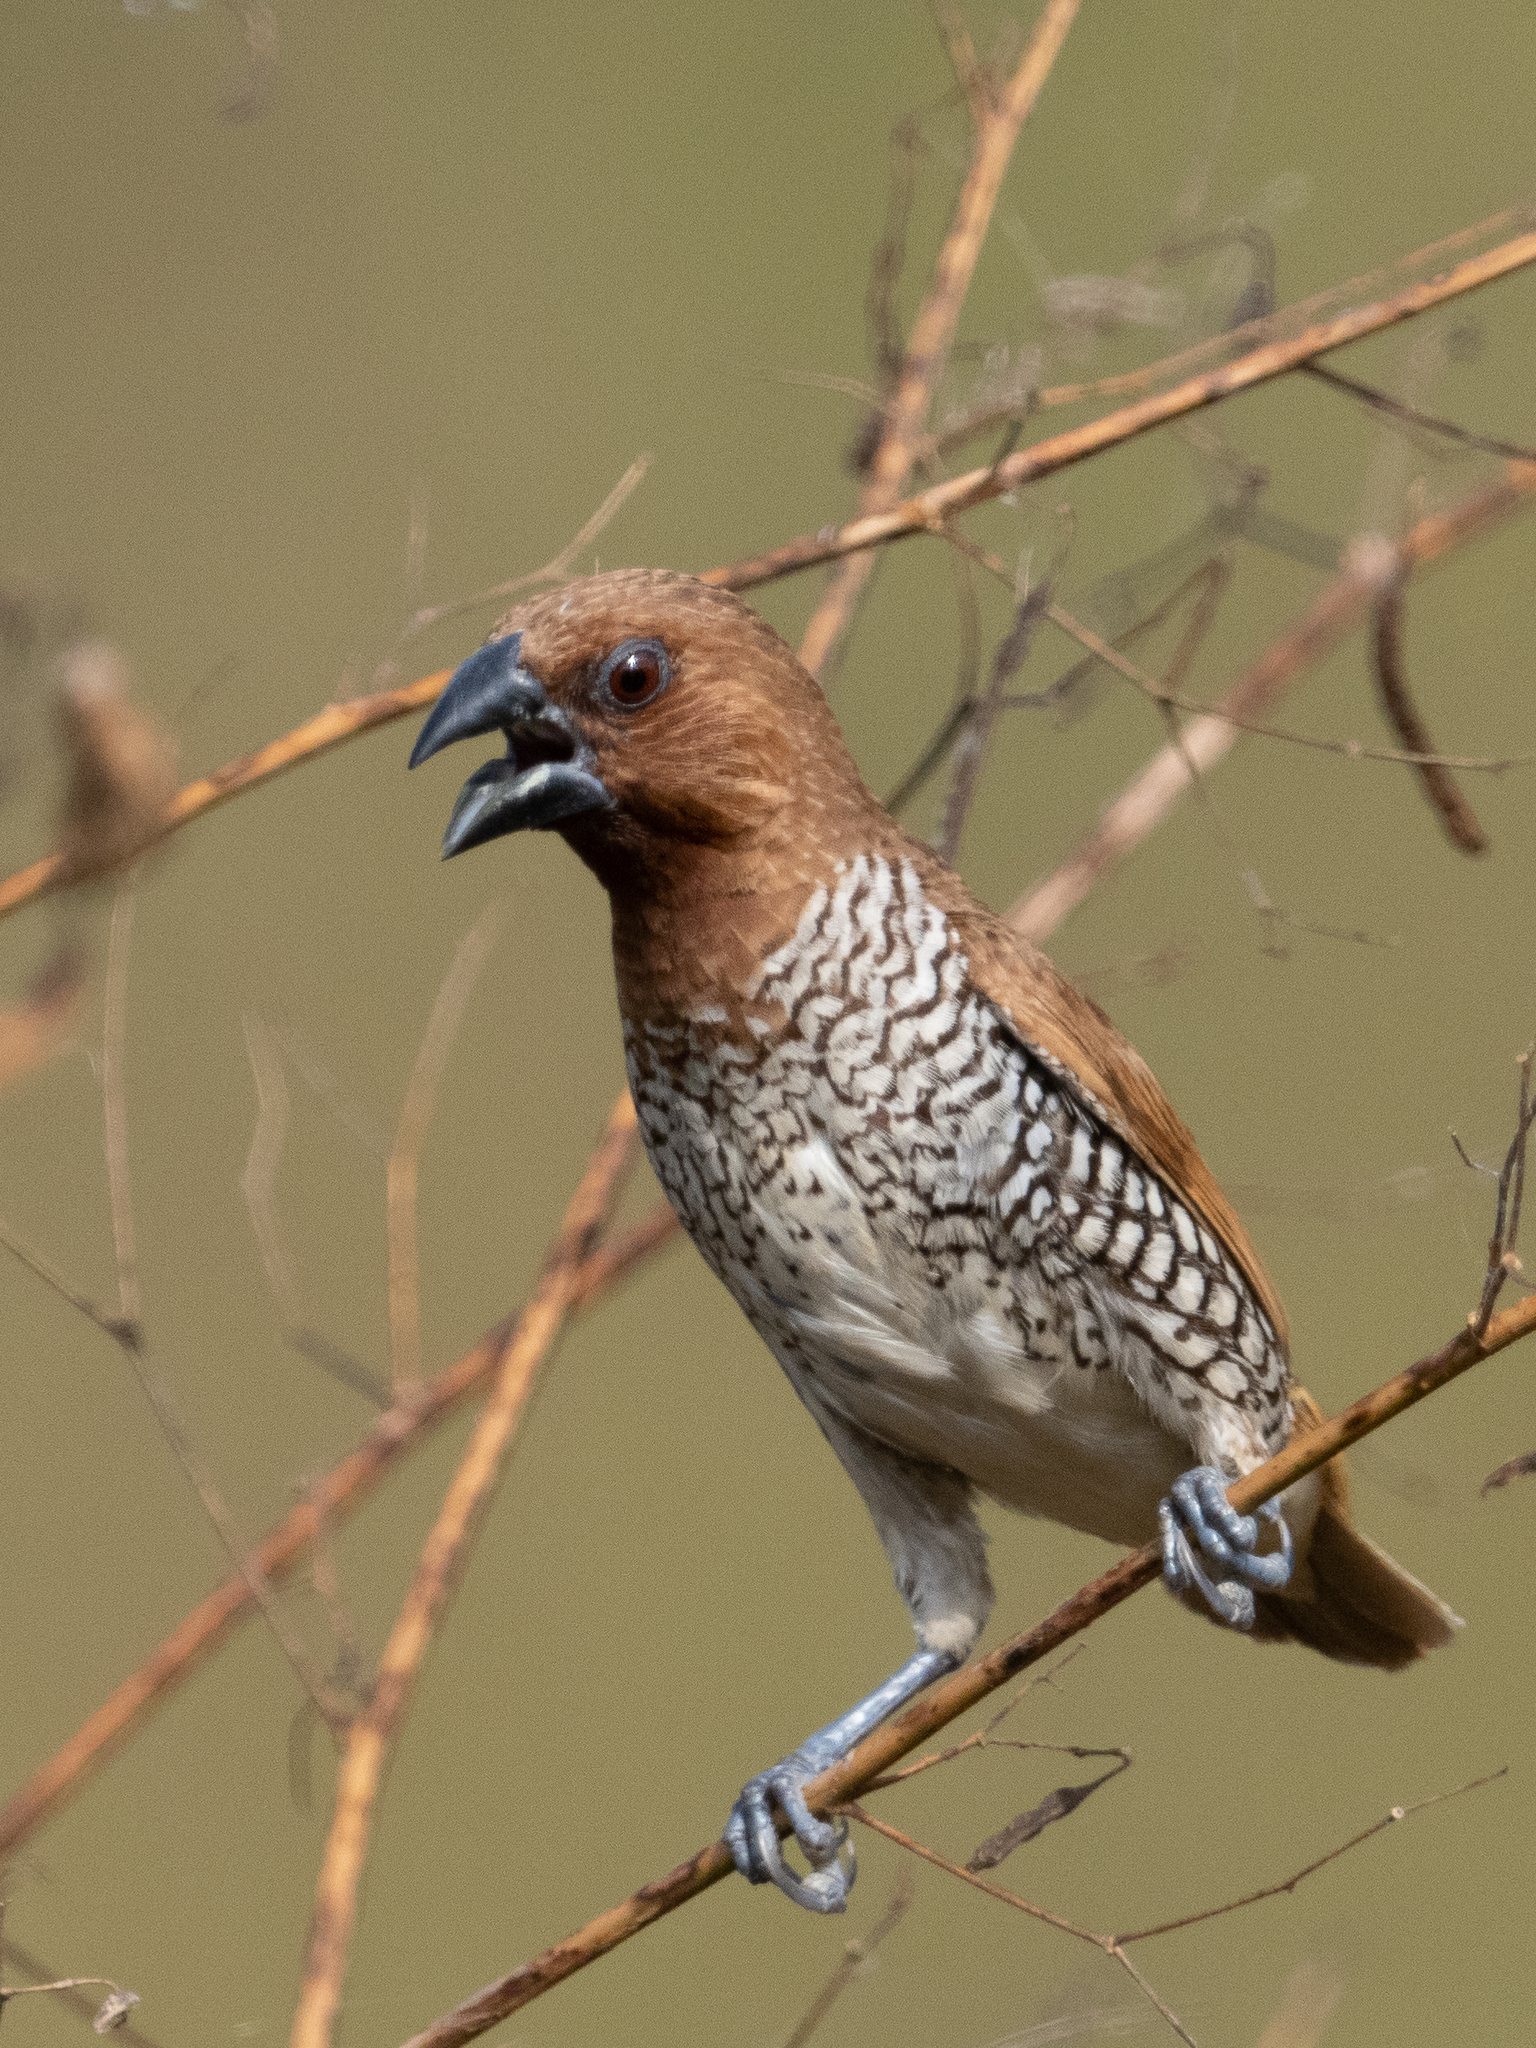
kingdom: Animalia
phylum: Chordata
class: Aves
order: Passeriformes
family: Estrildidae
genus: Lonchura
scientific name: Lonchura punctulata
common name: Scaly-breasted munia
